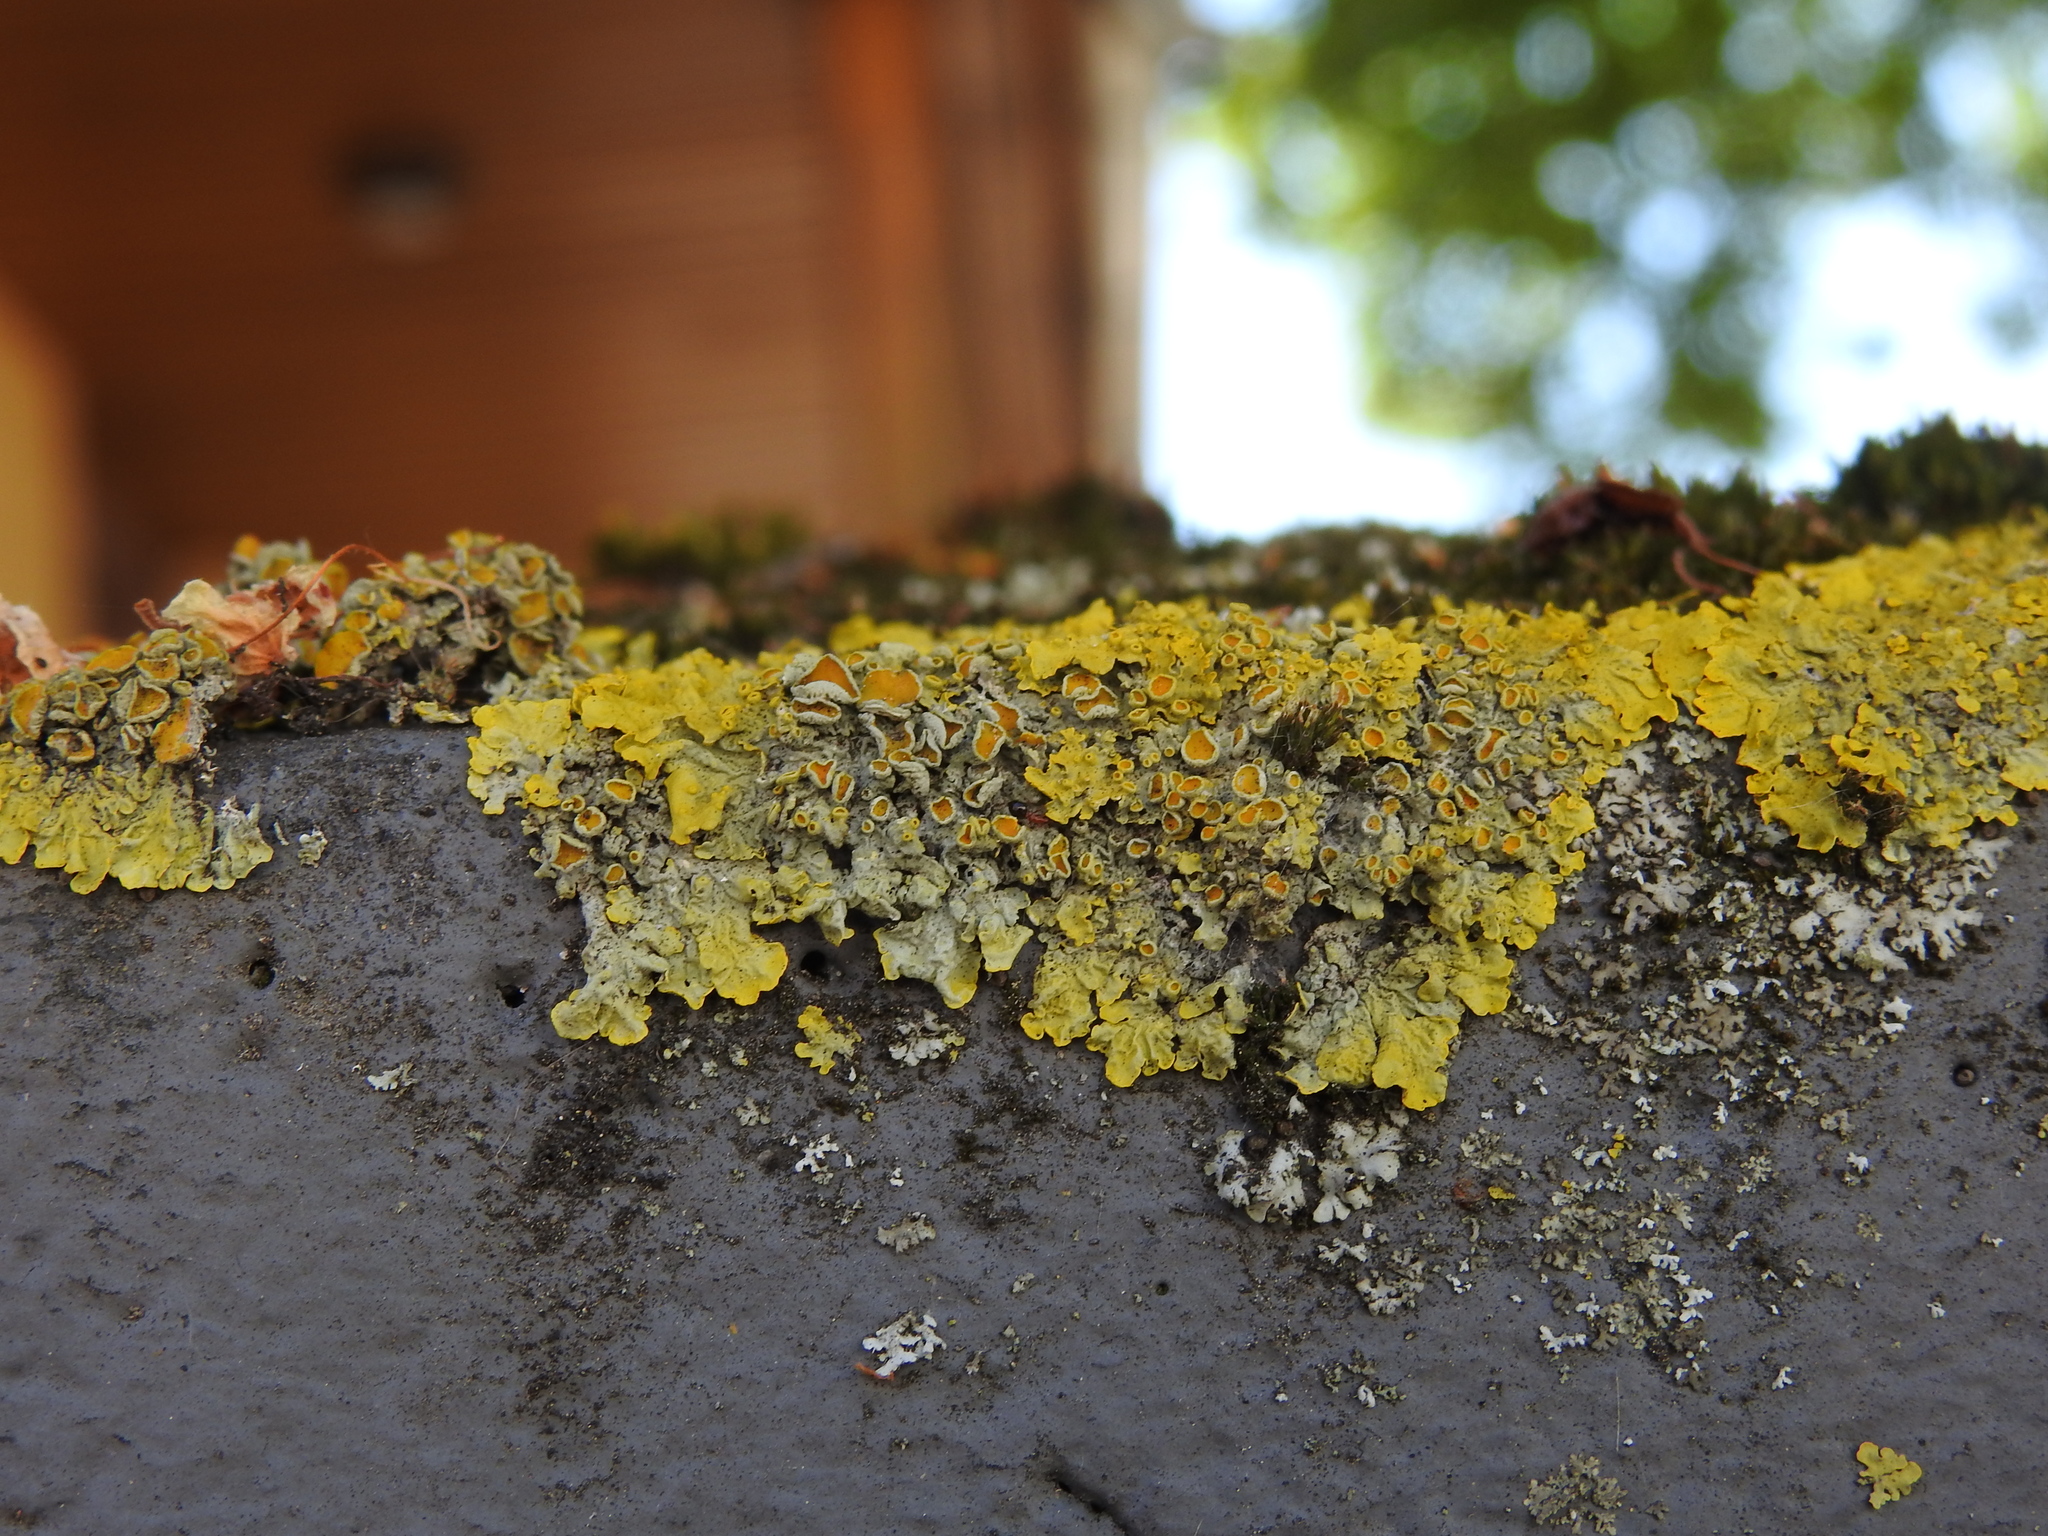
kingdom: Fungi
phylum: Ascomycota
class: Lecanoromycetes
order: Teloschistales
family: Teloschistaceae
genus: Xanthoria
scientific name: Xanthoria parietina
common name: Common orange lichen
